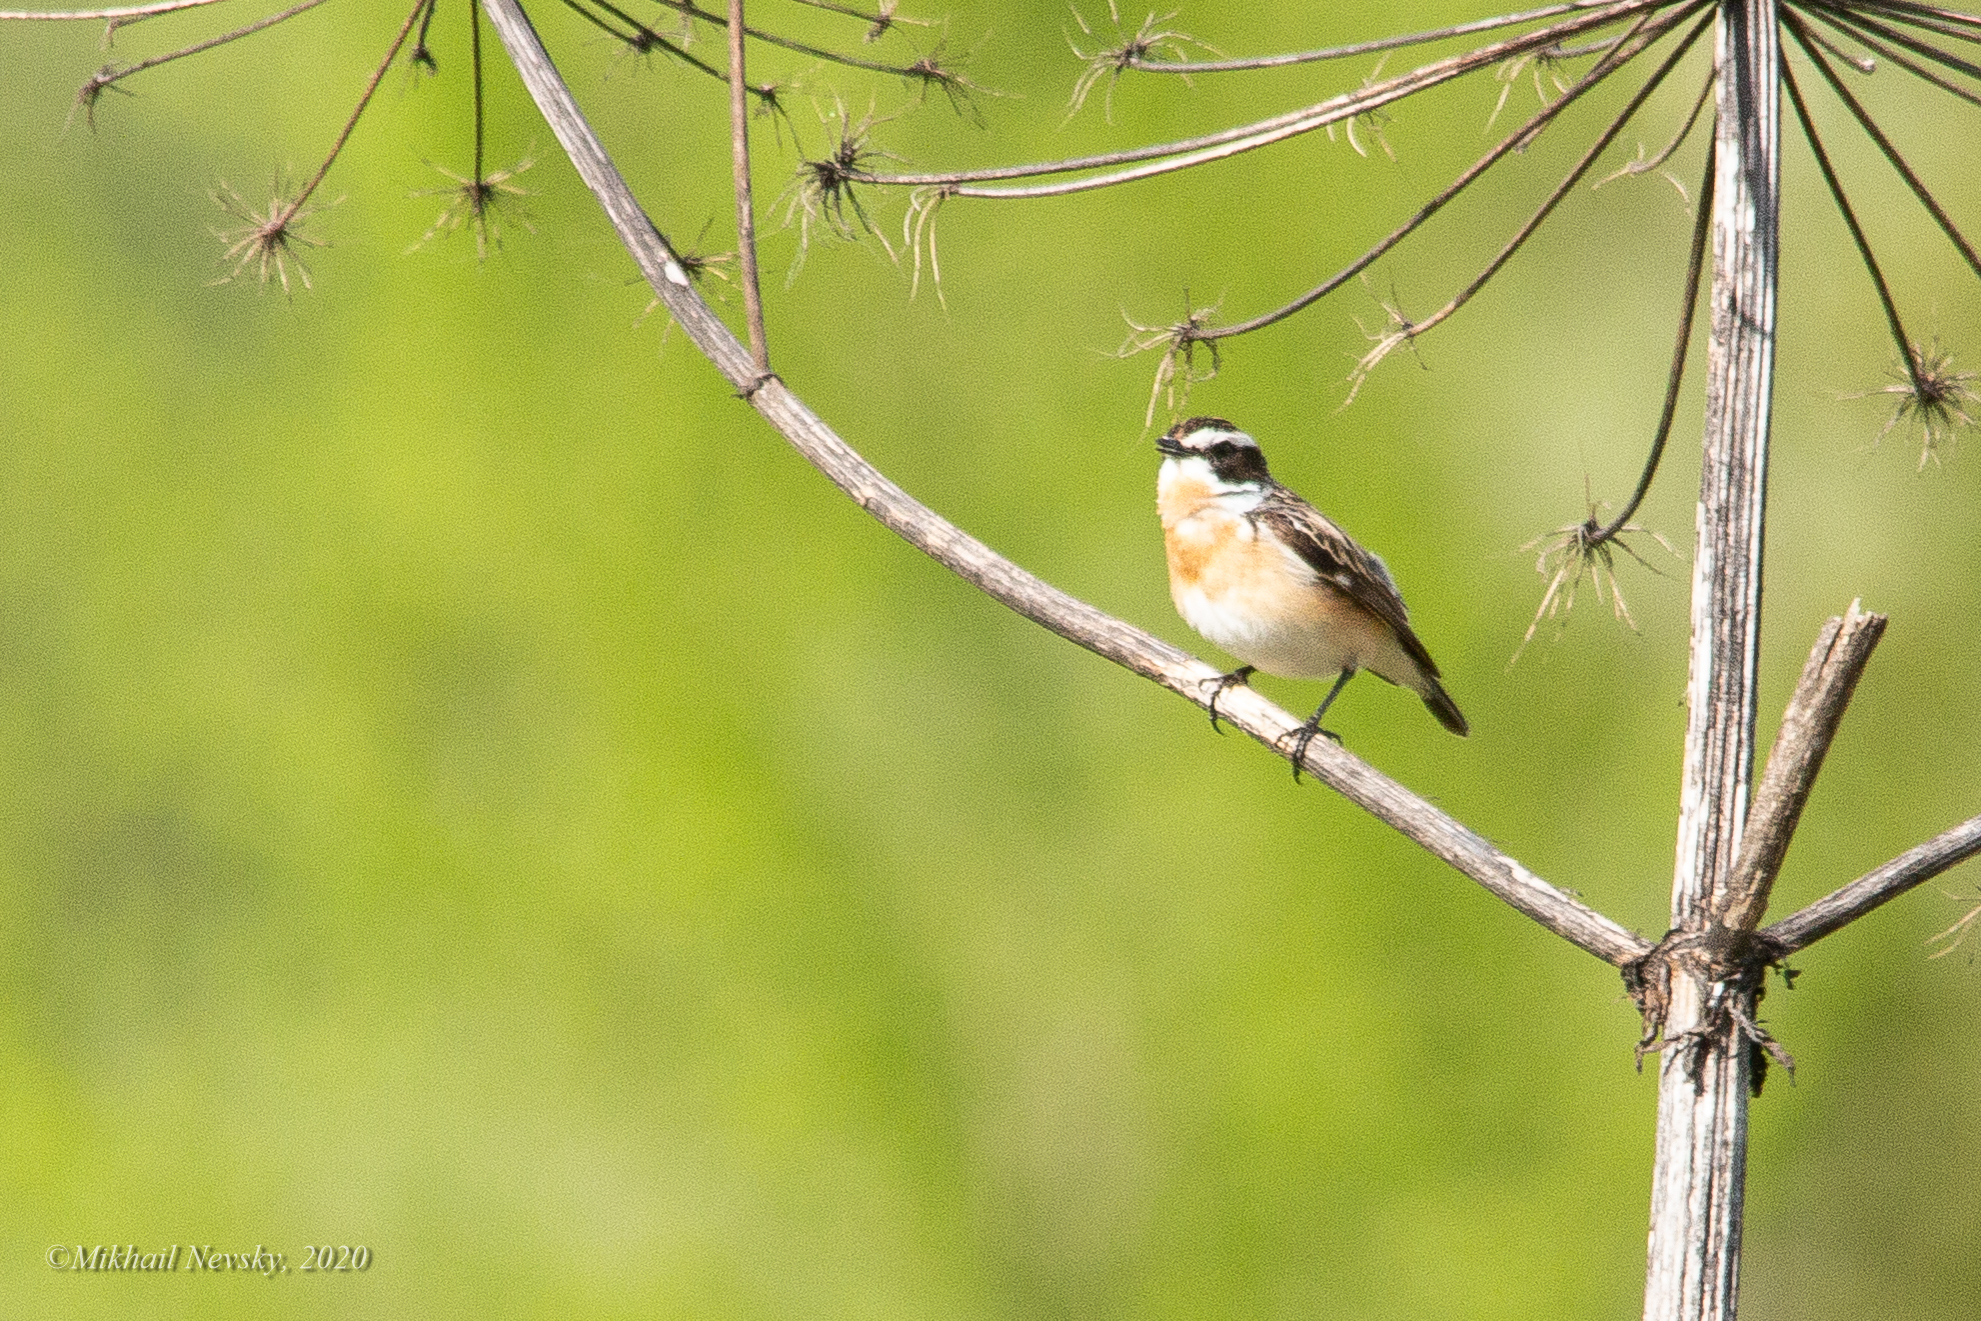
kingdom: Animalia
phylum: Chordata
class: Aves
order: Passeriformes
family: Muscicapidae
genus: Saxicola
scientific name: Saxicola rubetra
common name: Whinchat
